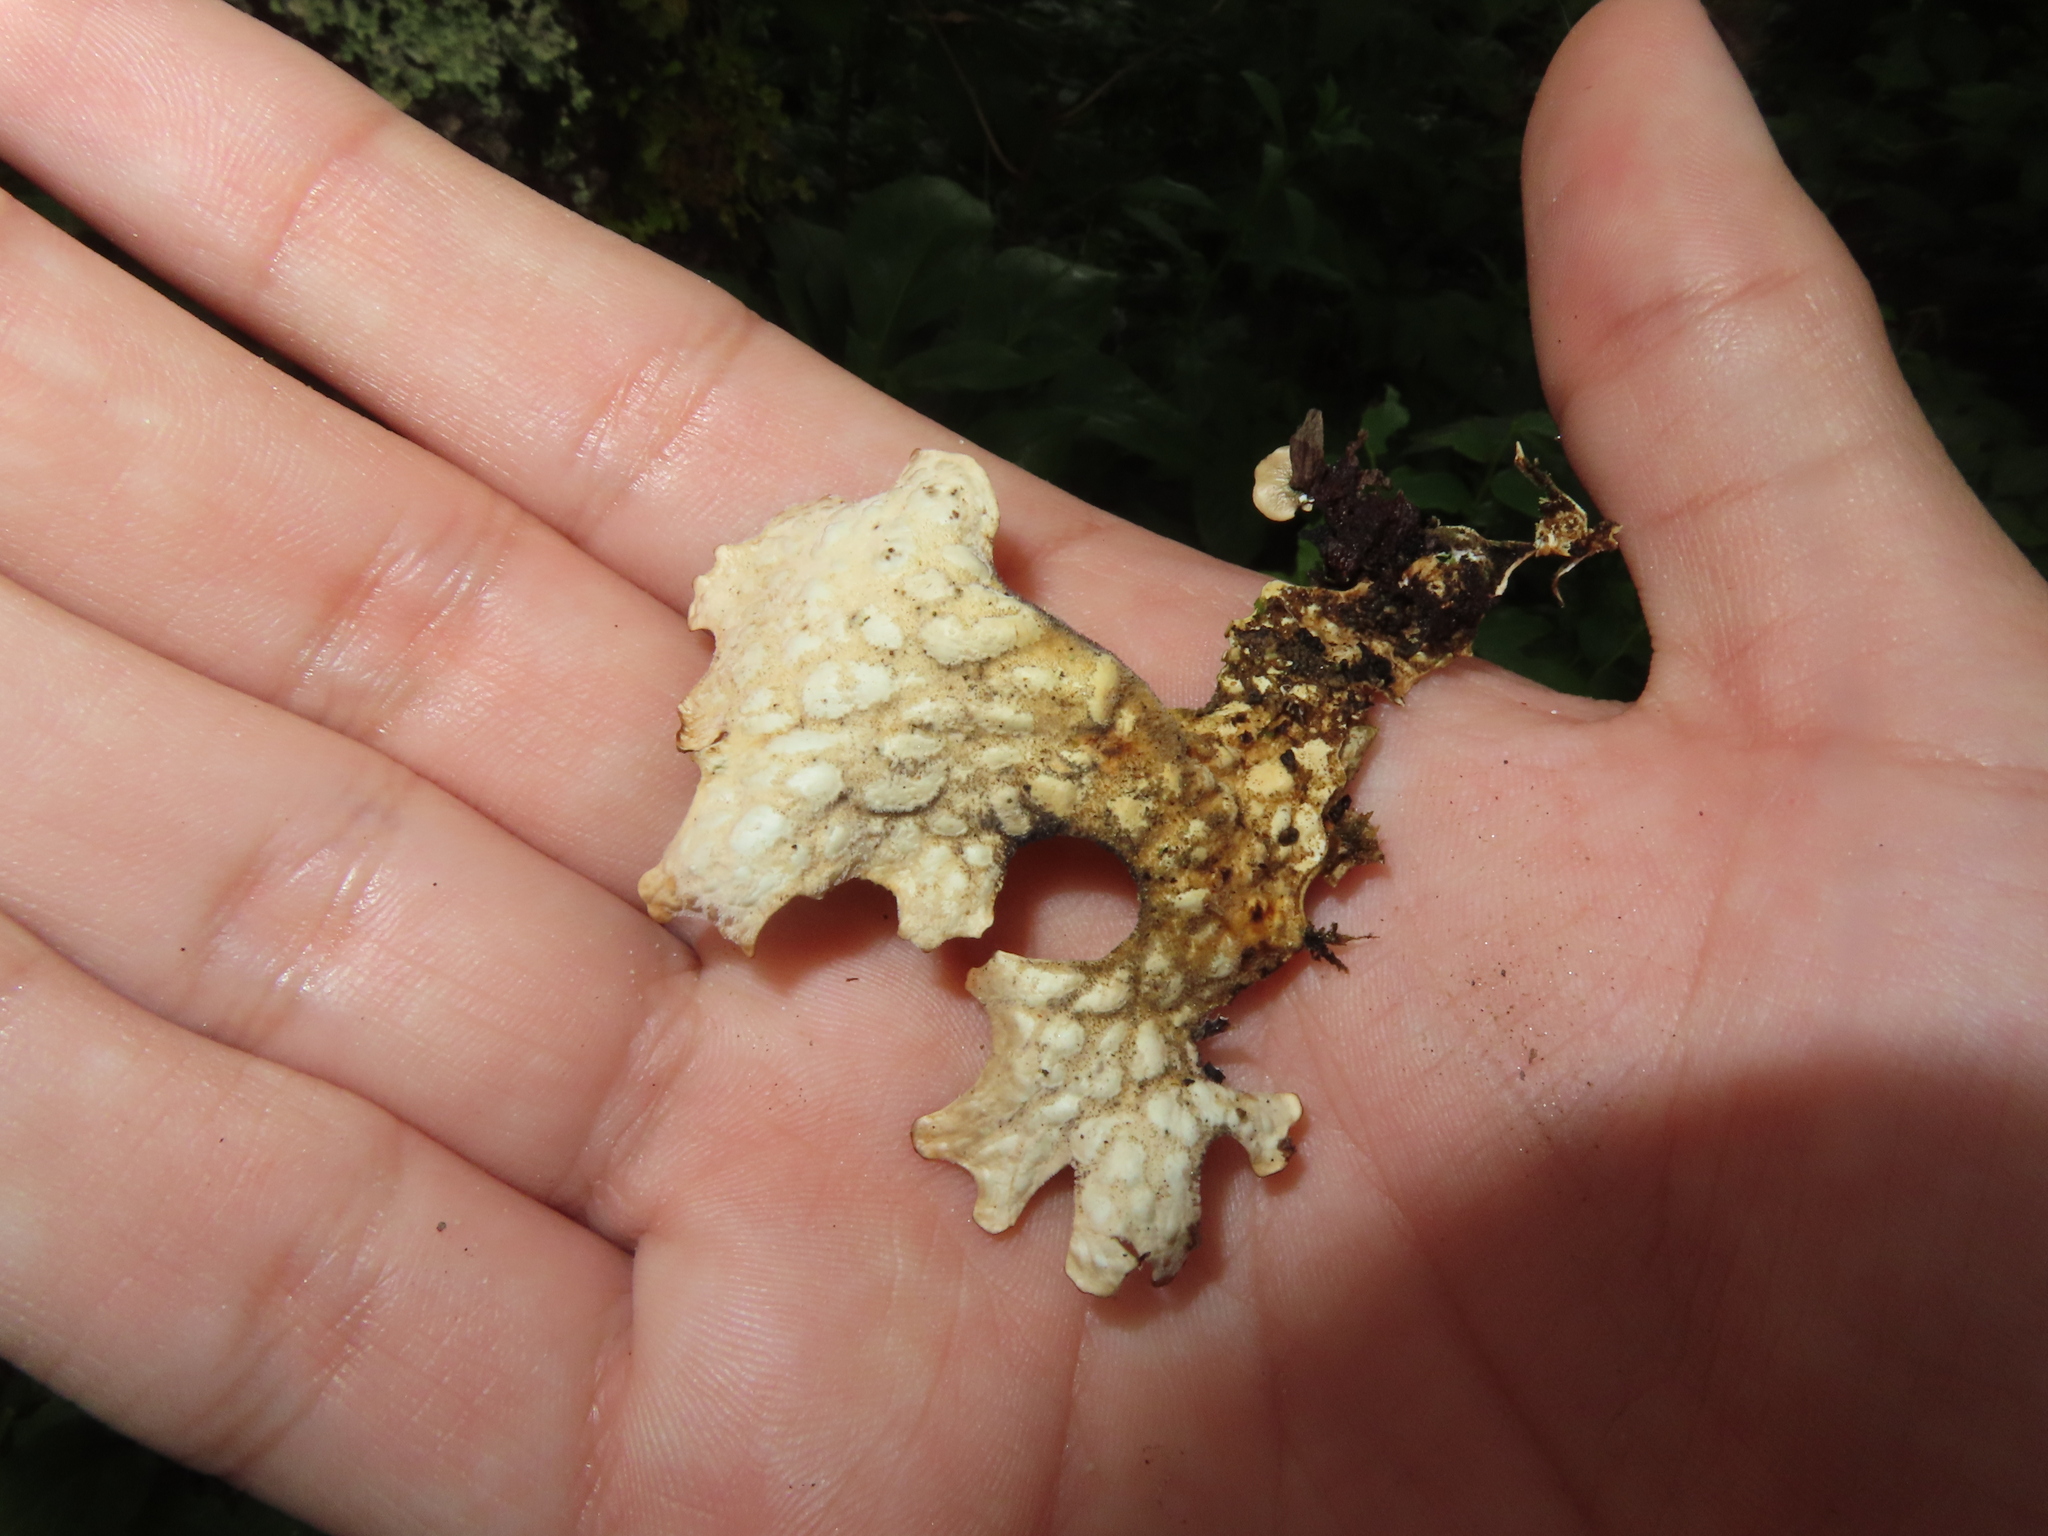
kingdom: Fungi
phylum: Ascomycota
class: Lecanoromycetes
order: Peltigerales
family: Lobariaceae
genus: Lobaria
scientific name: Lobaria pulmonaria
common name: Lungwort
